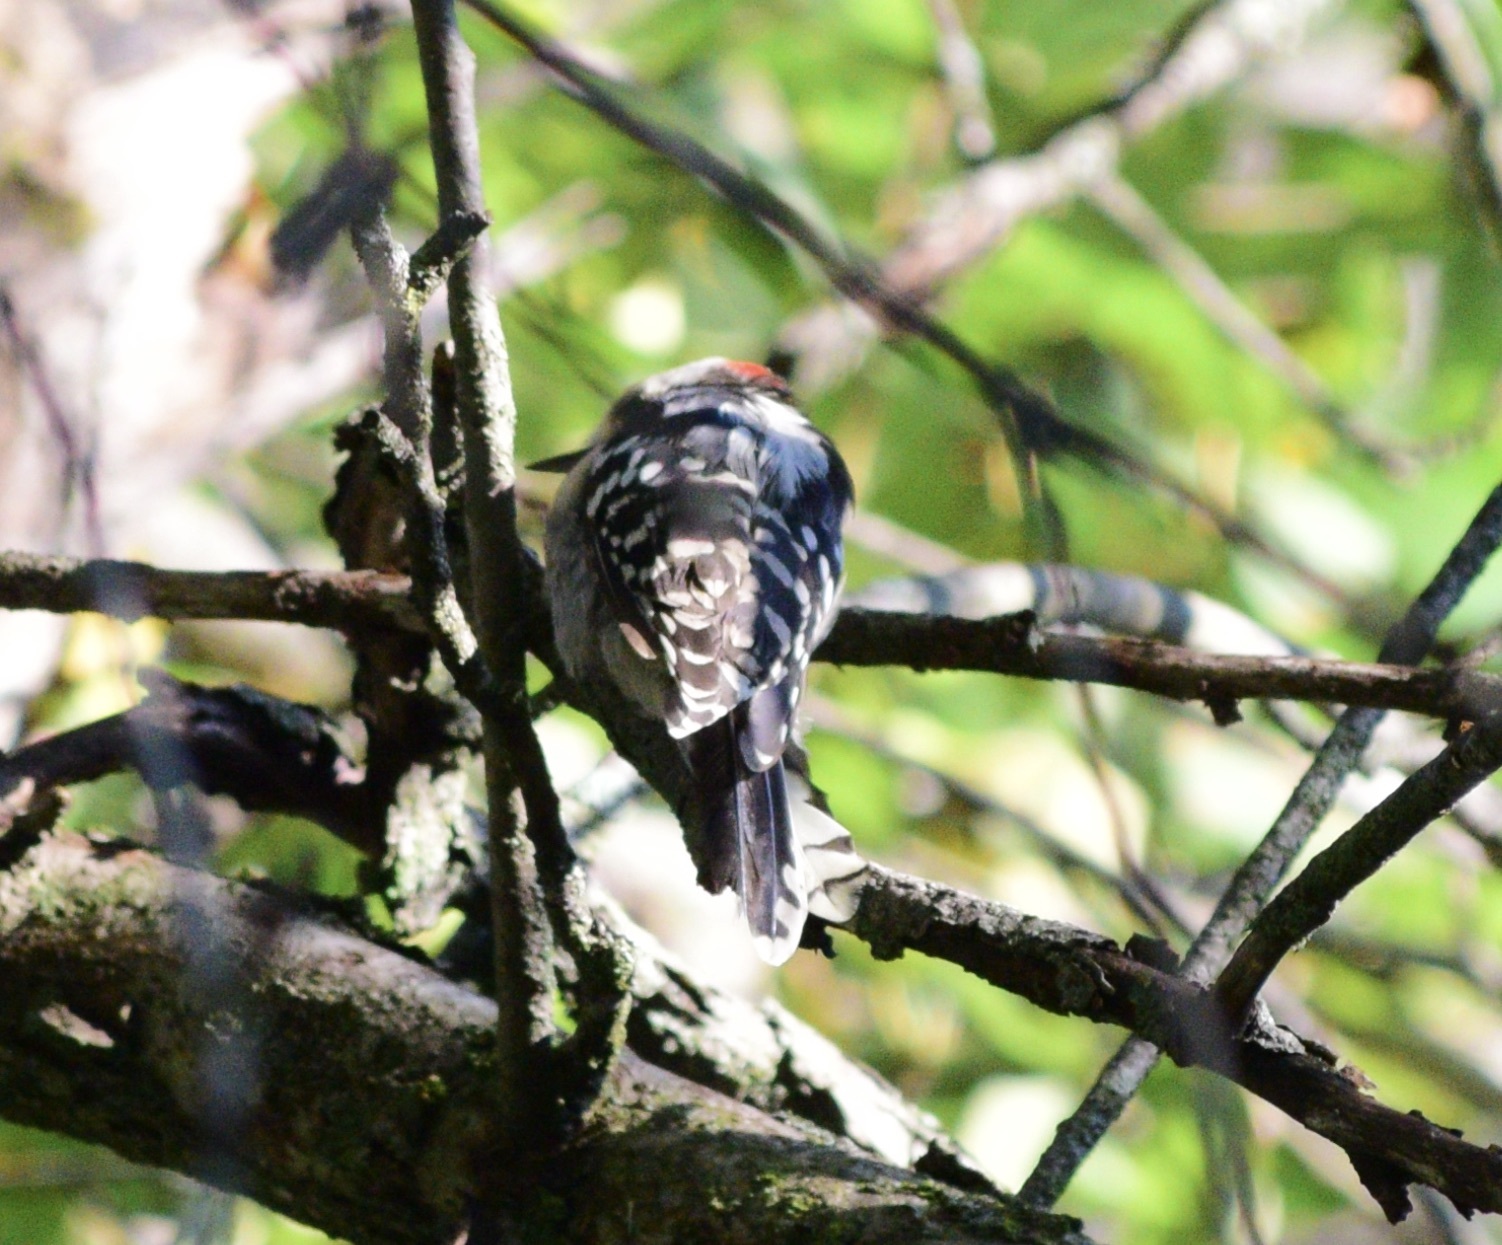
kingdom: Animalia
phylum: Chordata
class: Aves
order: Piciformes
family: Picidae
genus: Dryobates
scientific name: Dryobates pubescens
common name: Downy woodpecker
